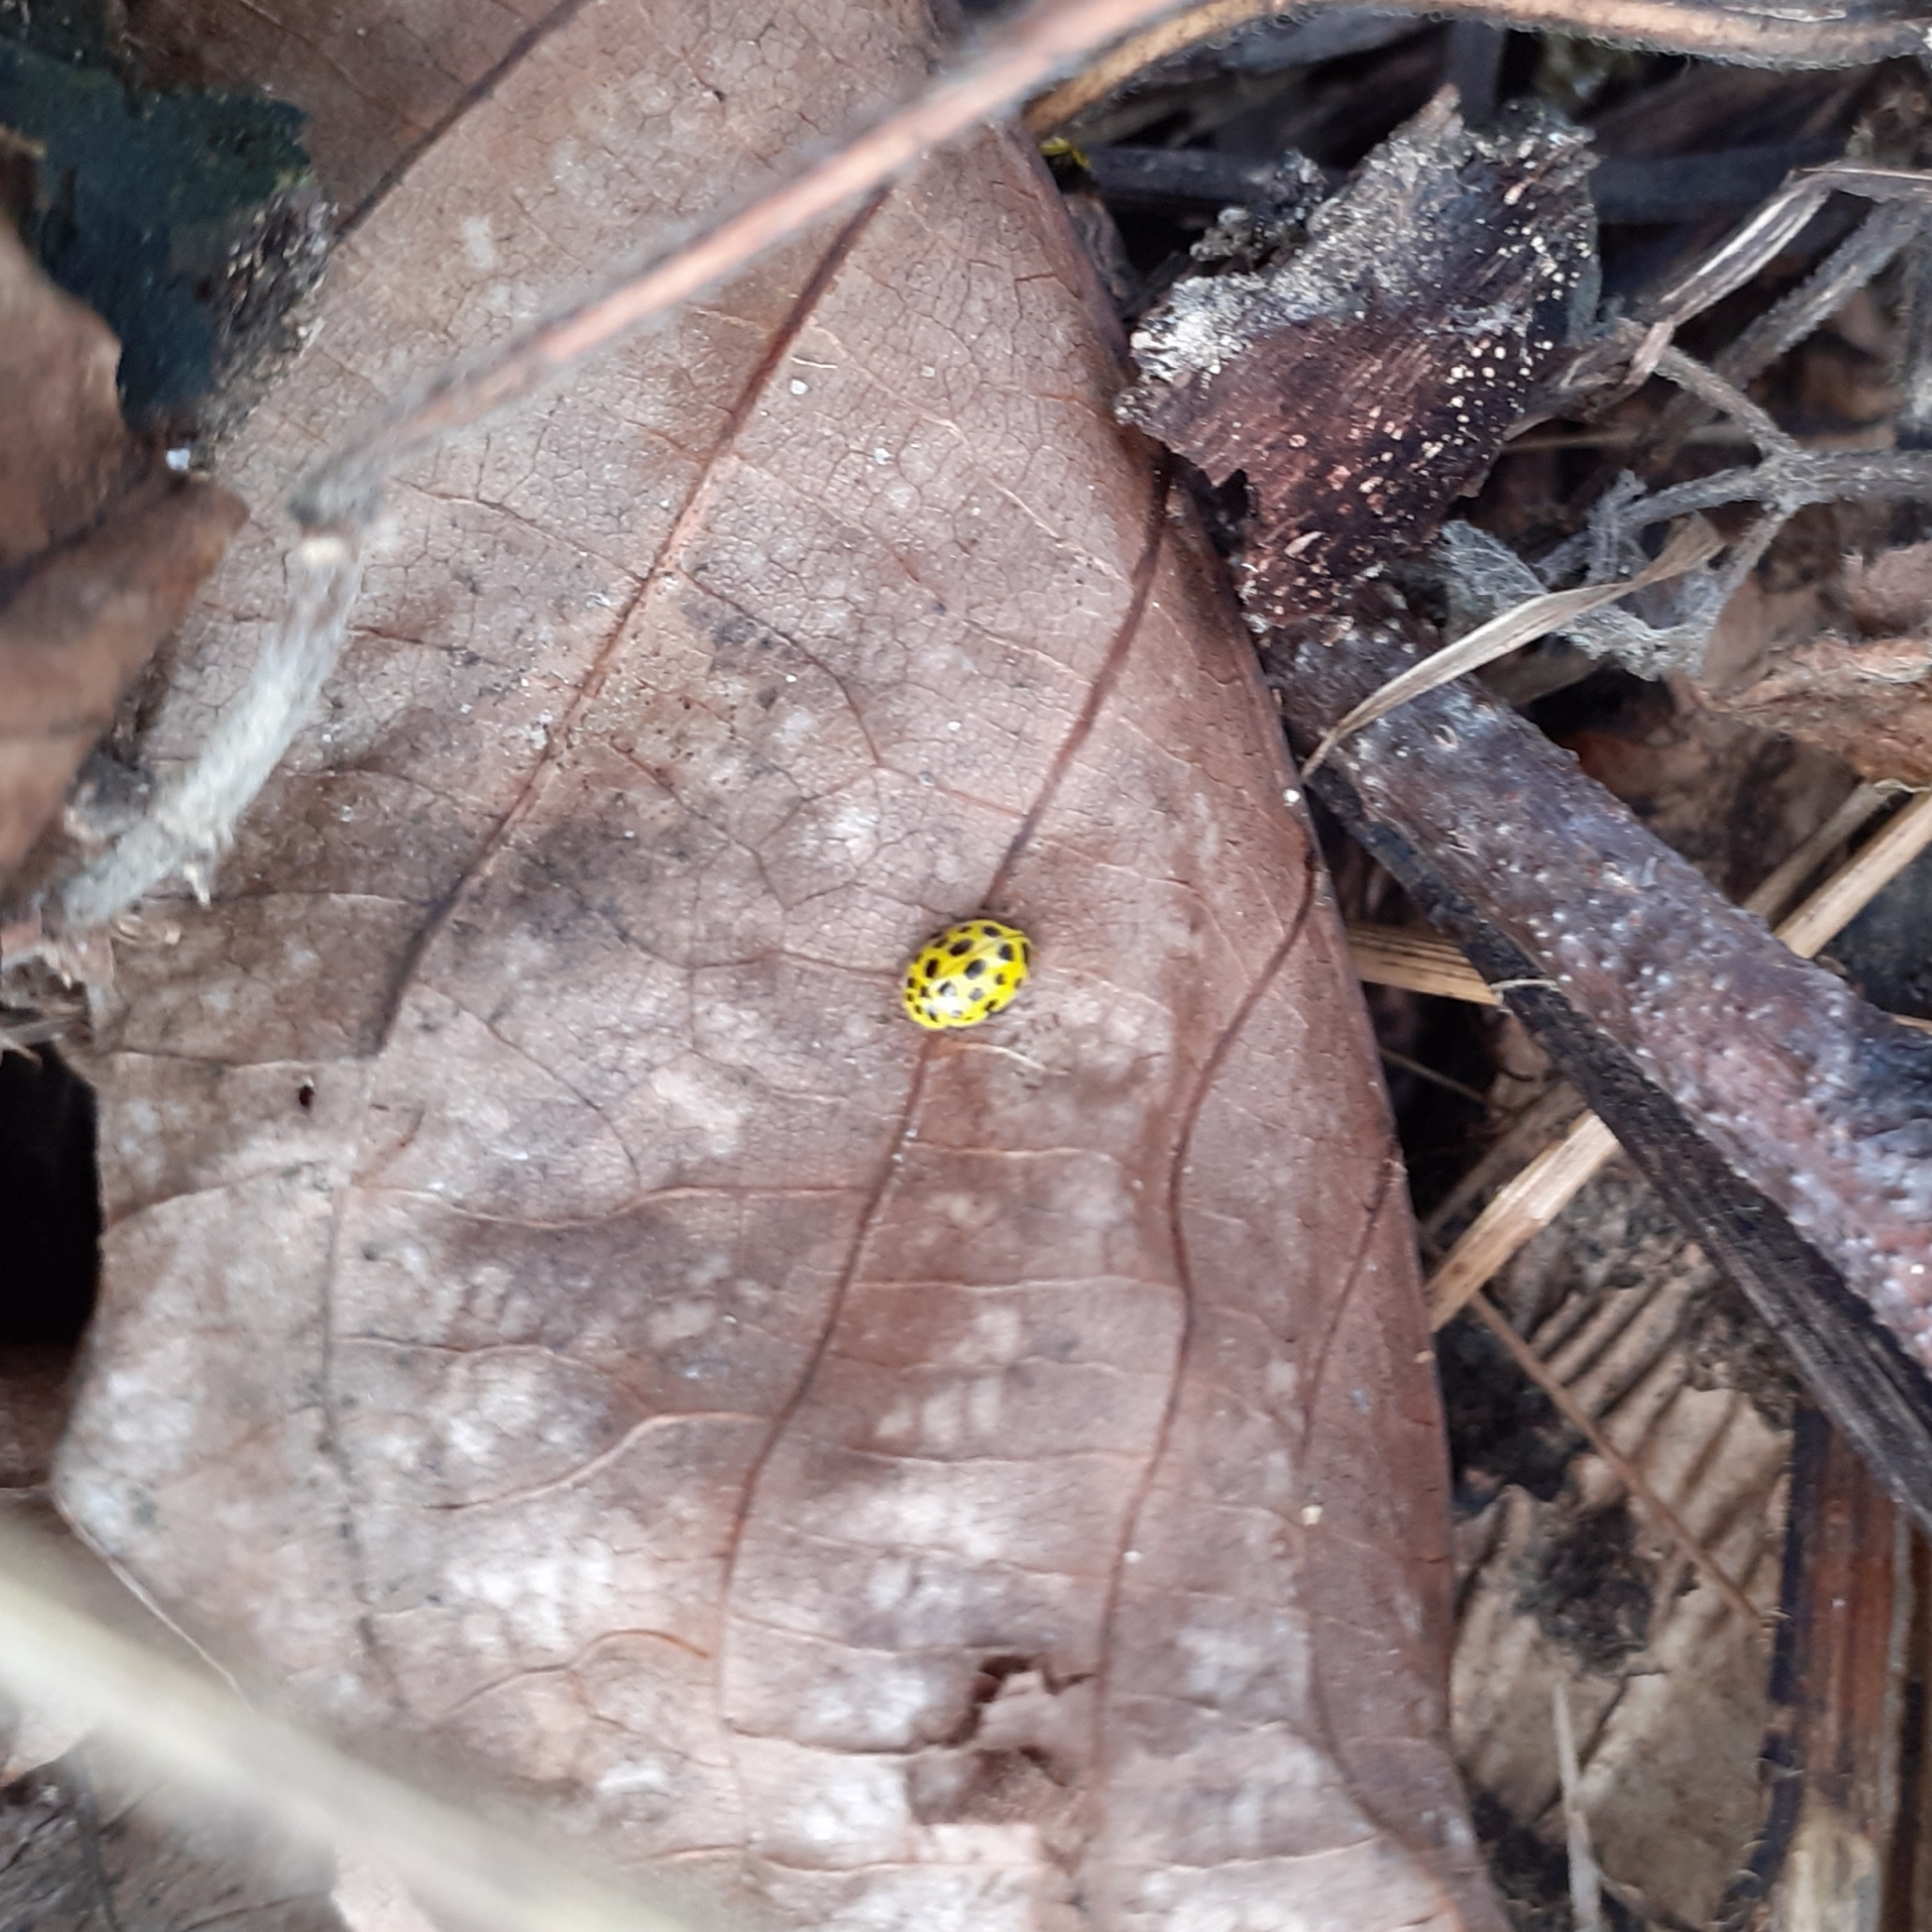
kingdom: Animalia
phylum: Arthropoda
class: Insecta
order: Coleoptera
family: Coccinellidae
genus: Psyllobora
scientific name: Psyllobora vigintiduopunctata
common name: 22-spot ladybird
